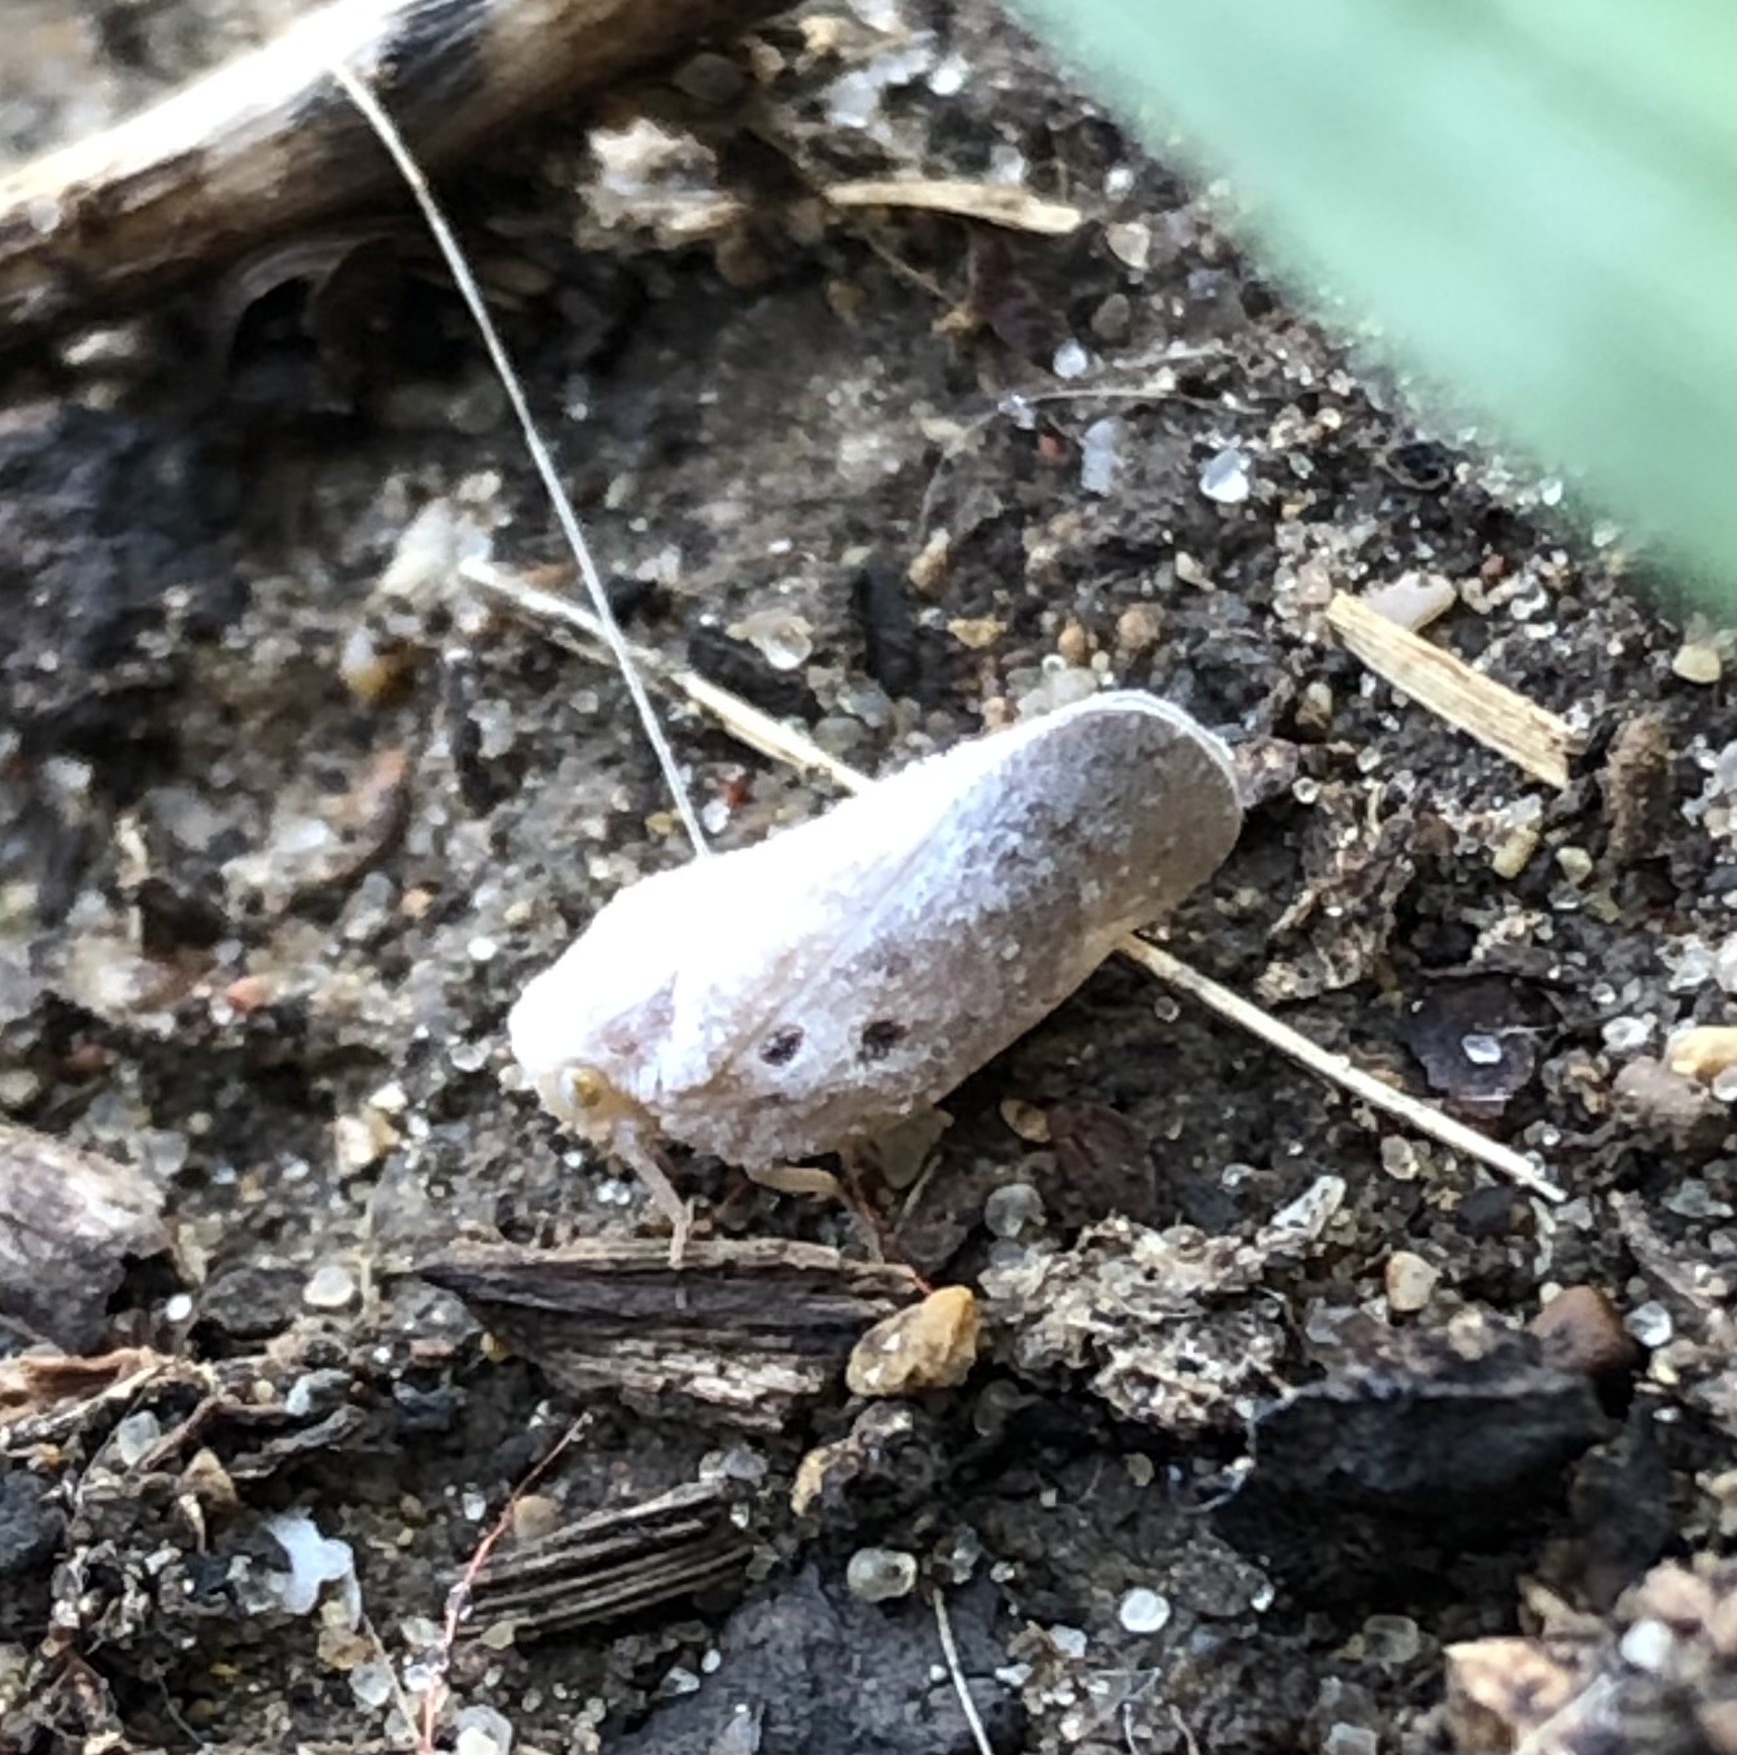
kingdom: Animalia
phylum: Arthropoda
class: Insecta
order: Hemiptera
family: Flatidae
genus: Metcalfa
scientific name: Metcalfa pruinosa
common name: Citrus flatid planthopper
